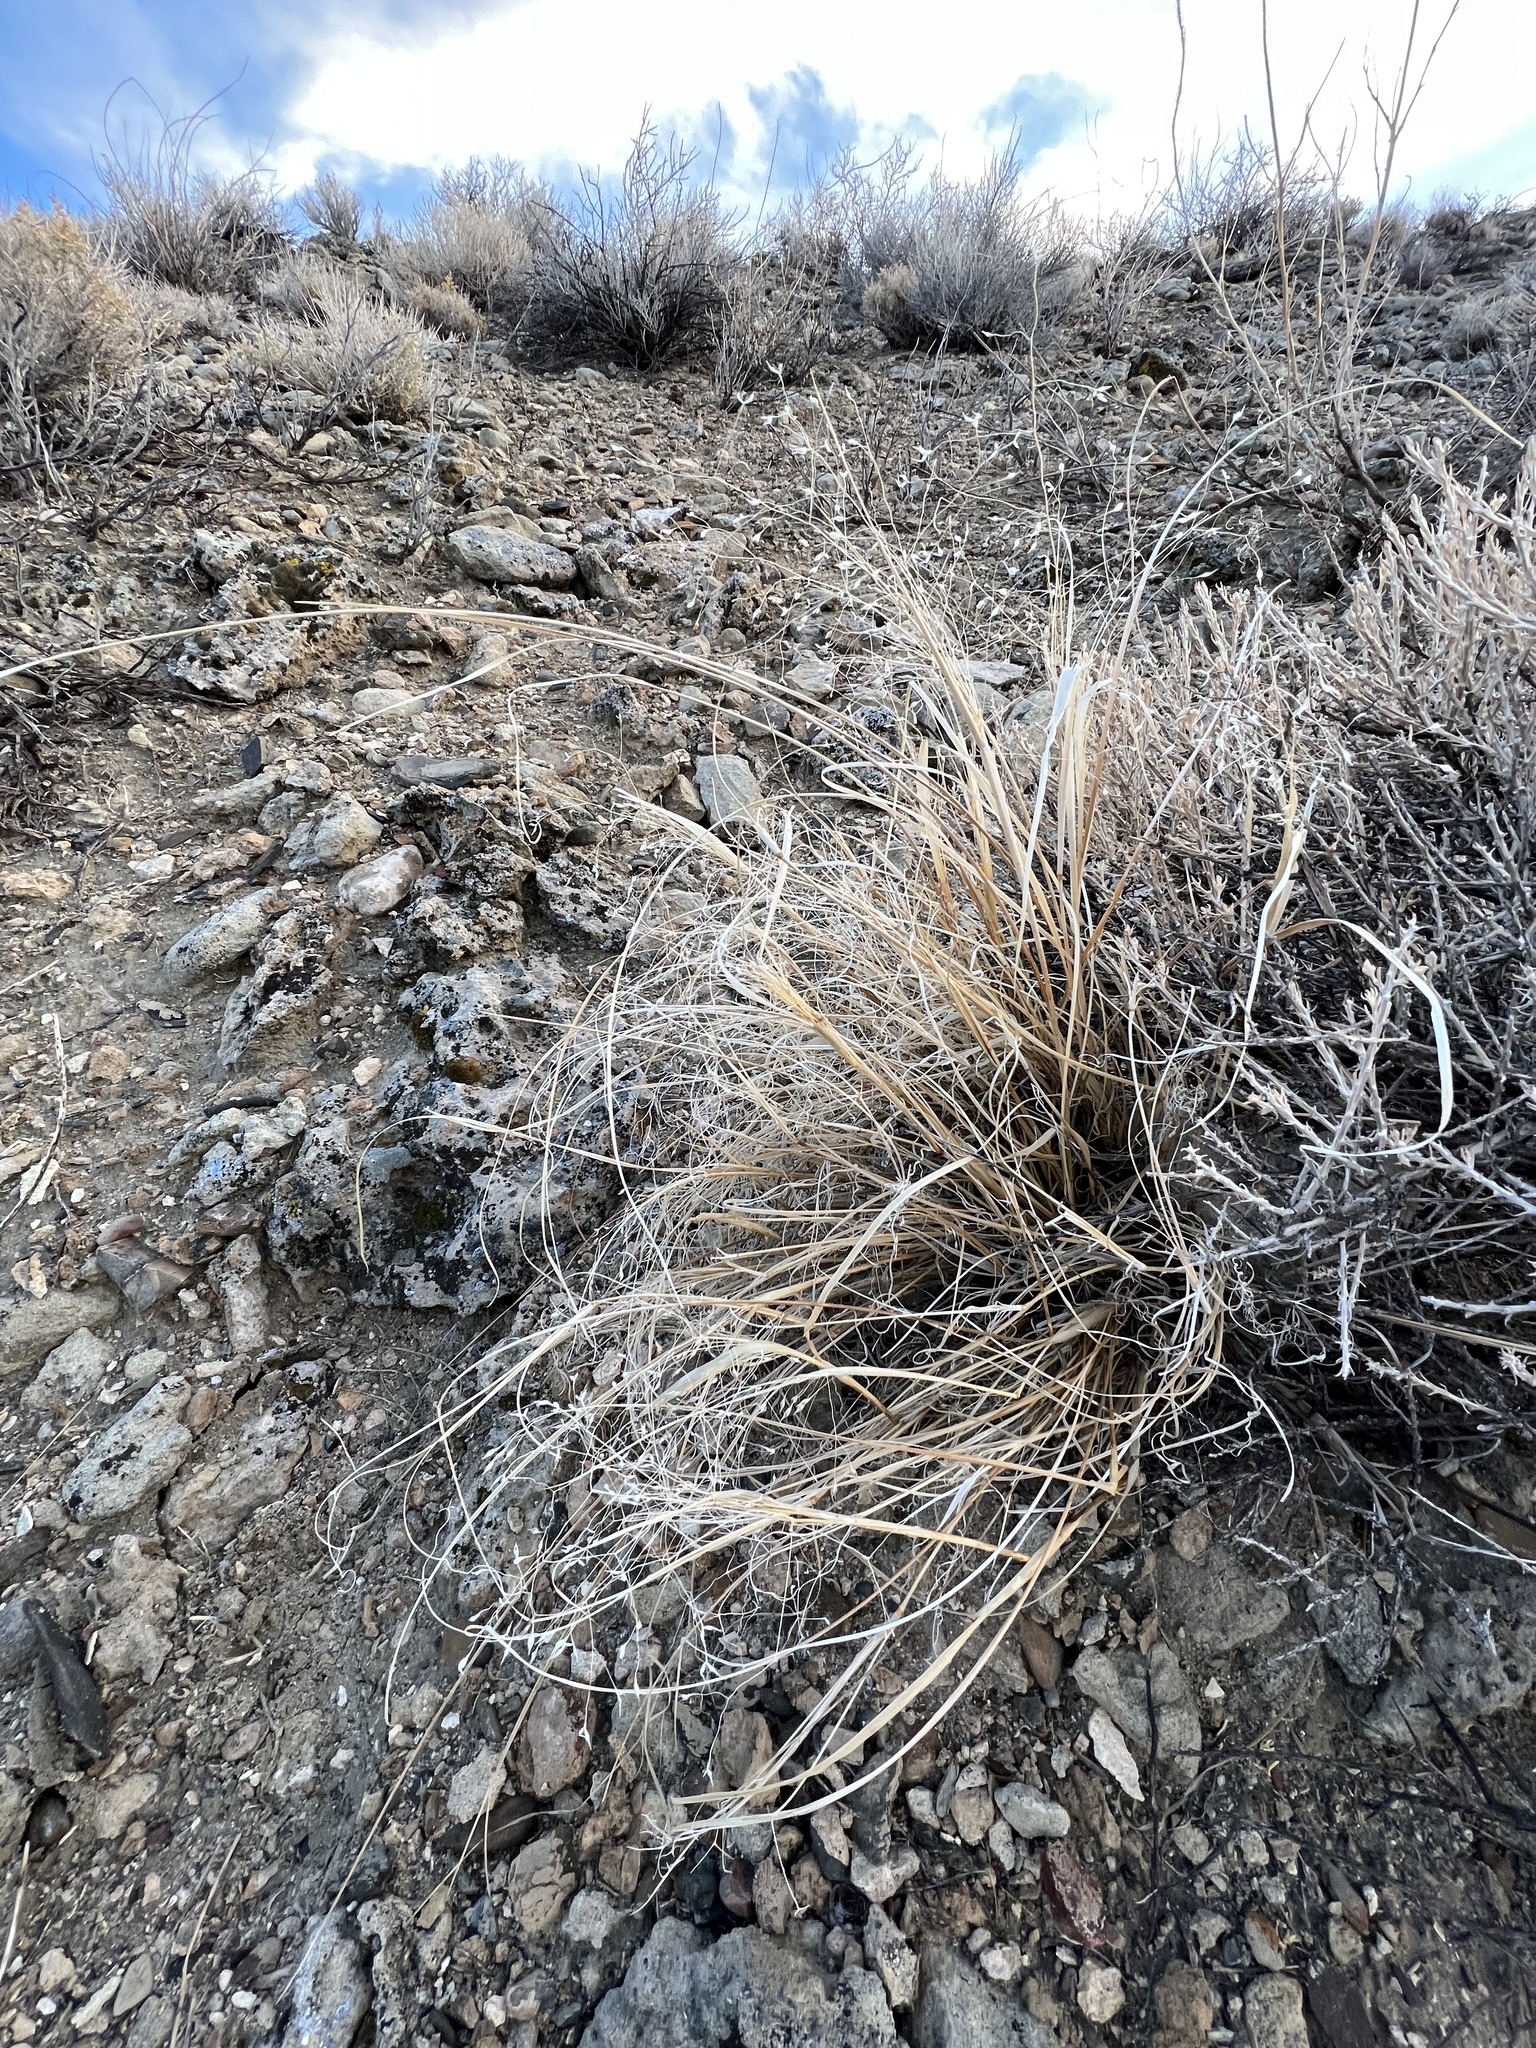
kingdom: Plantae
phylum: Tracheophyta
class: Liliopsida
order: Poales
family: Poaceae
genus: Eriocoma
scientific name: Eriocoma hymenoides
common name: Indian mountain ricegrass
